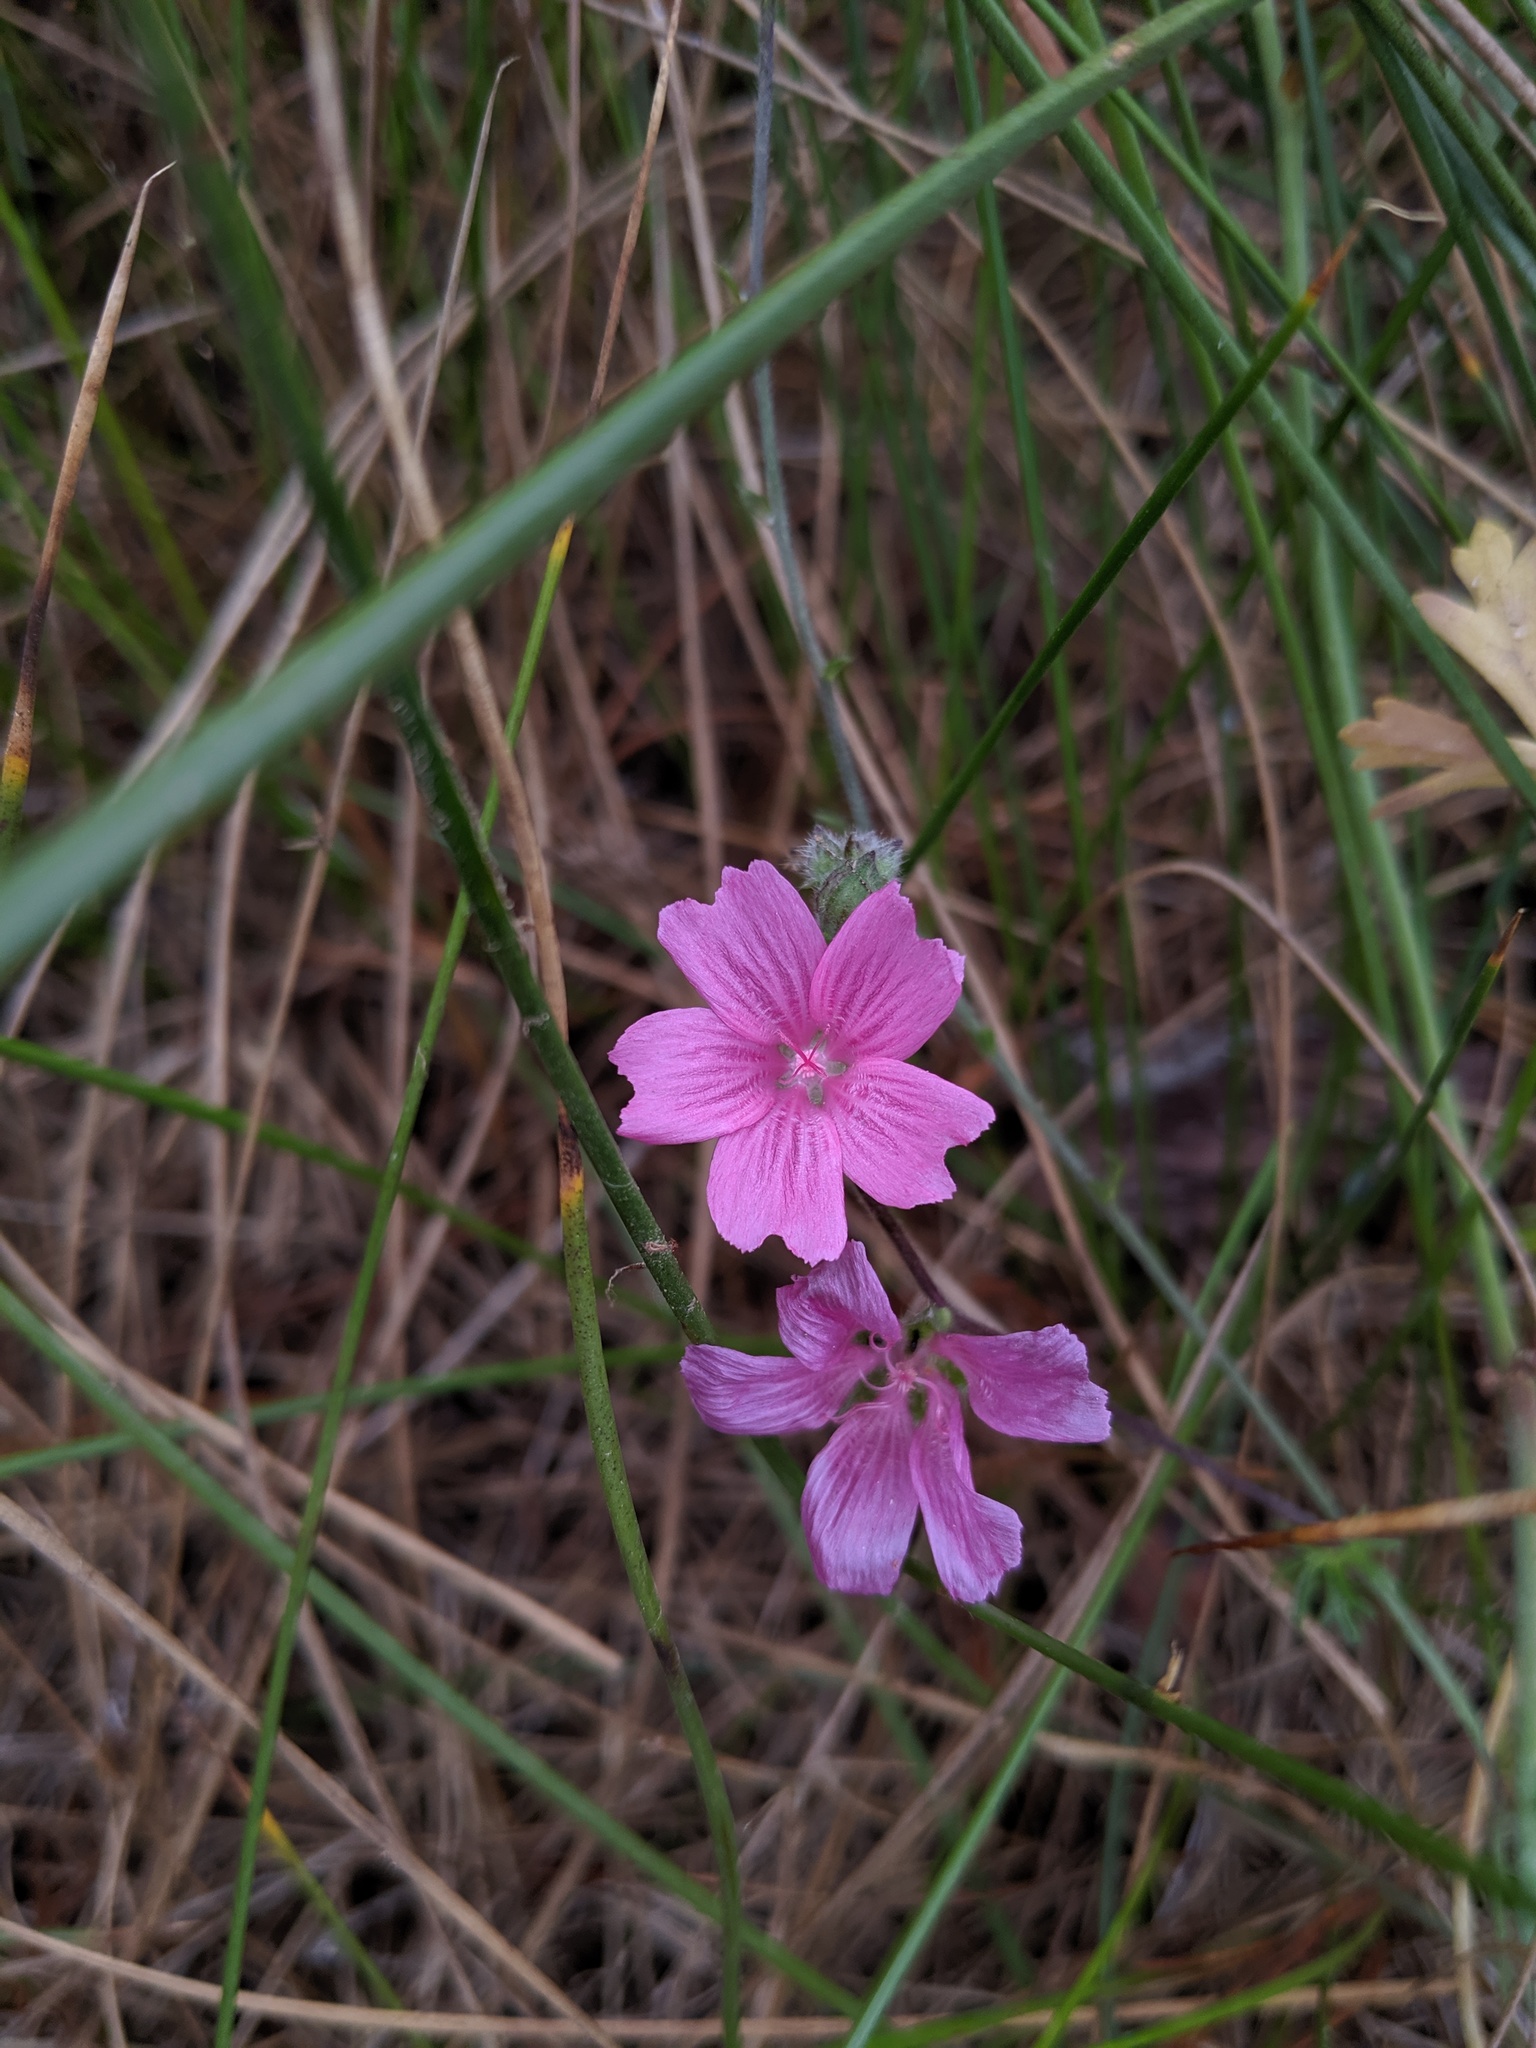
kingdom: Plantae
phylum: Tracheophyta
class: Magnoliopsida
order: Malvales
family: Malvaceae
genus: Sidalcea
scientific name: Sidalcea malviflora
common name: Greek mallow
